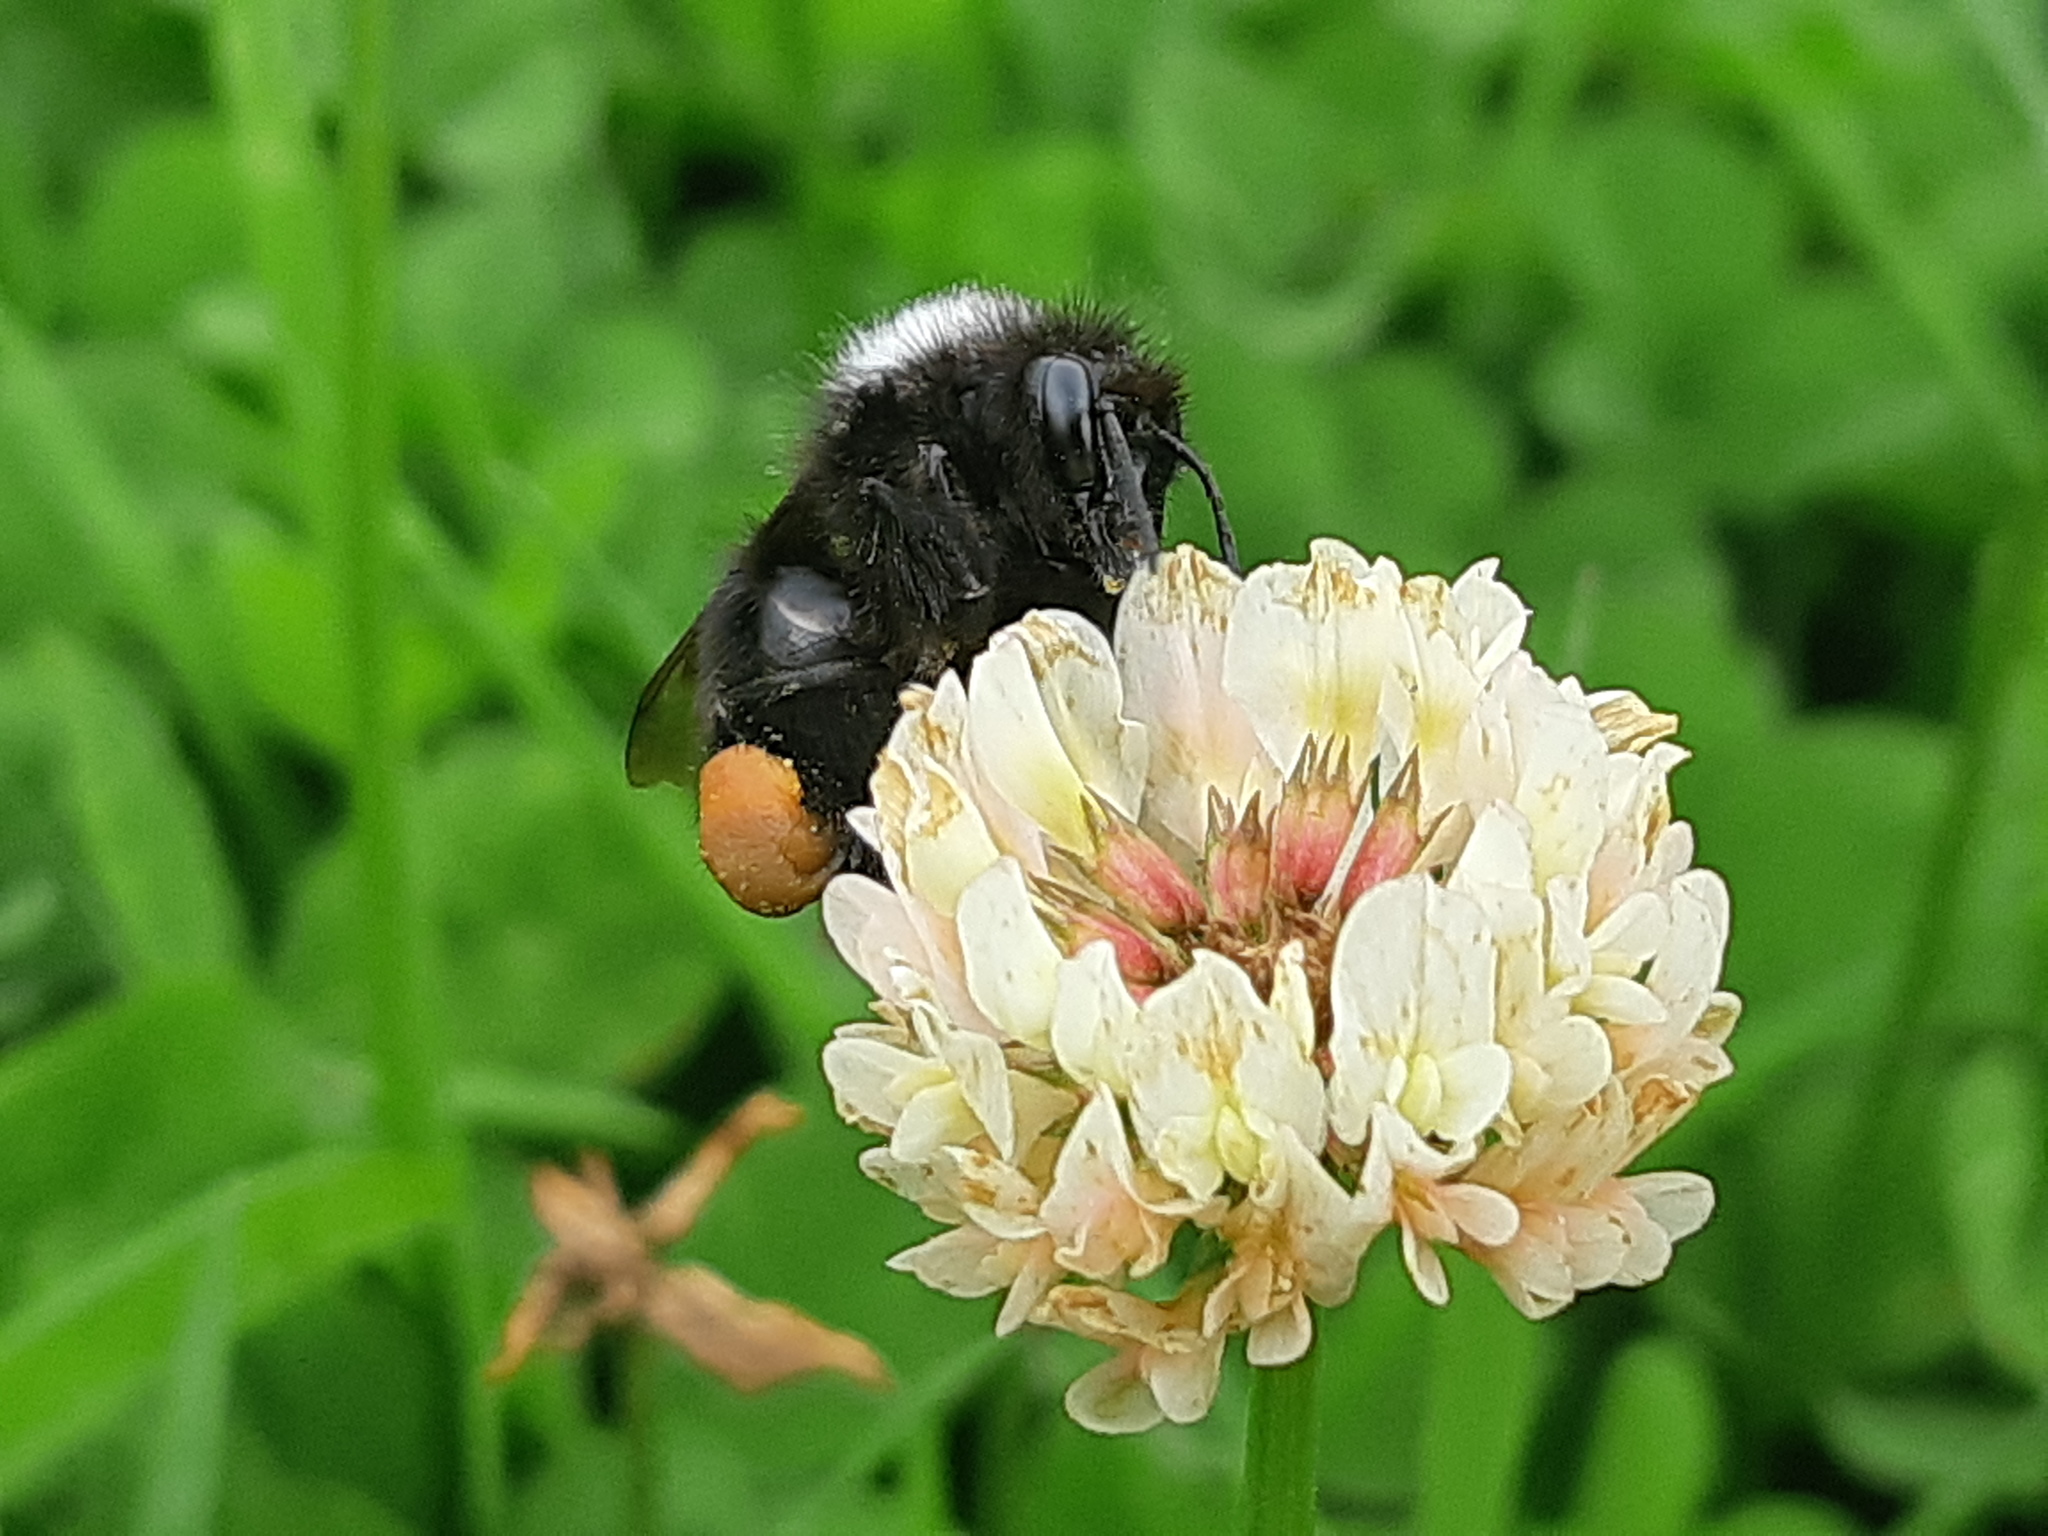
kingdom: Animalia
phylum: Arthropoda
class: Insecta
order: Hymenoptera
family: Apidae
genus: Bombus
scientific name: Bombus funebris
